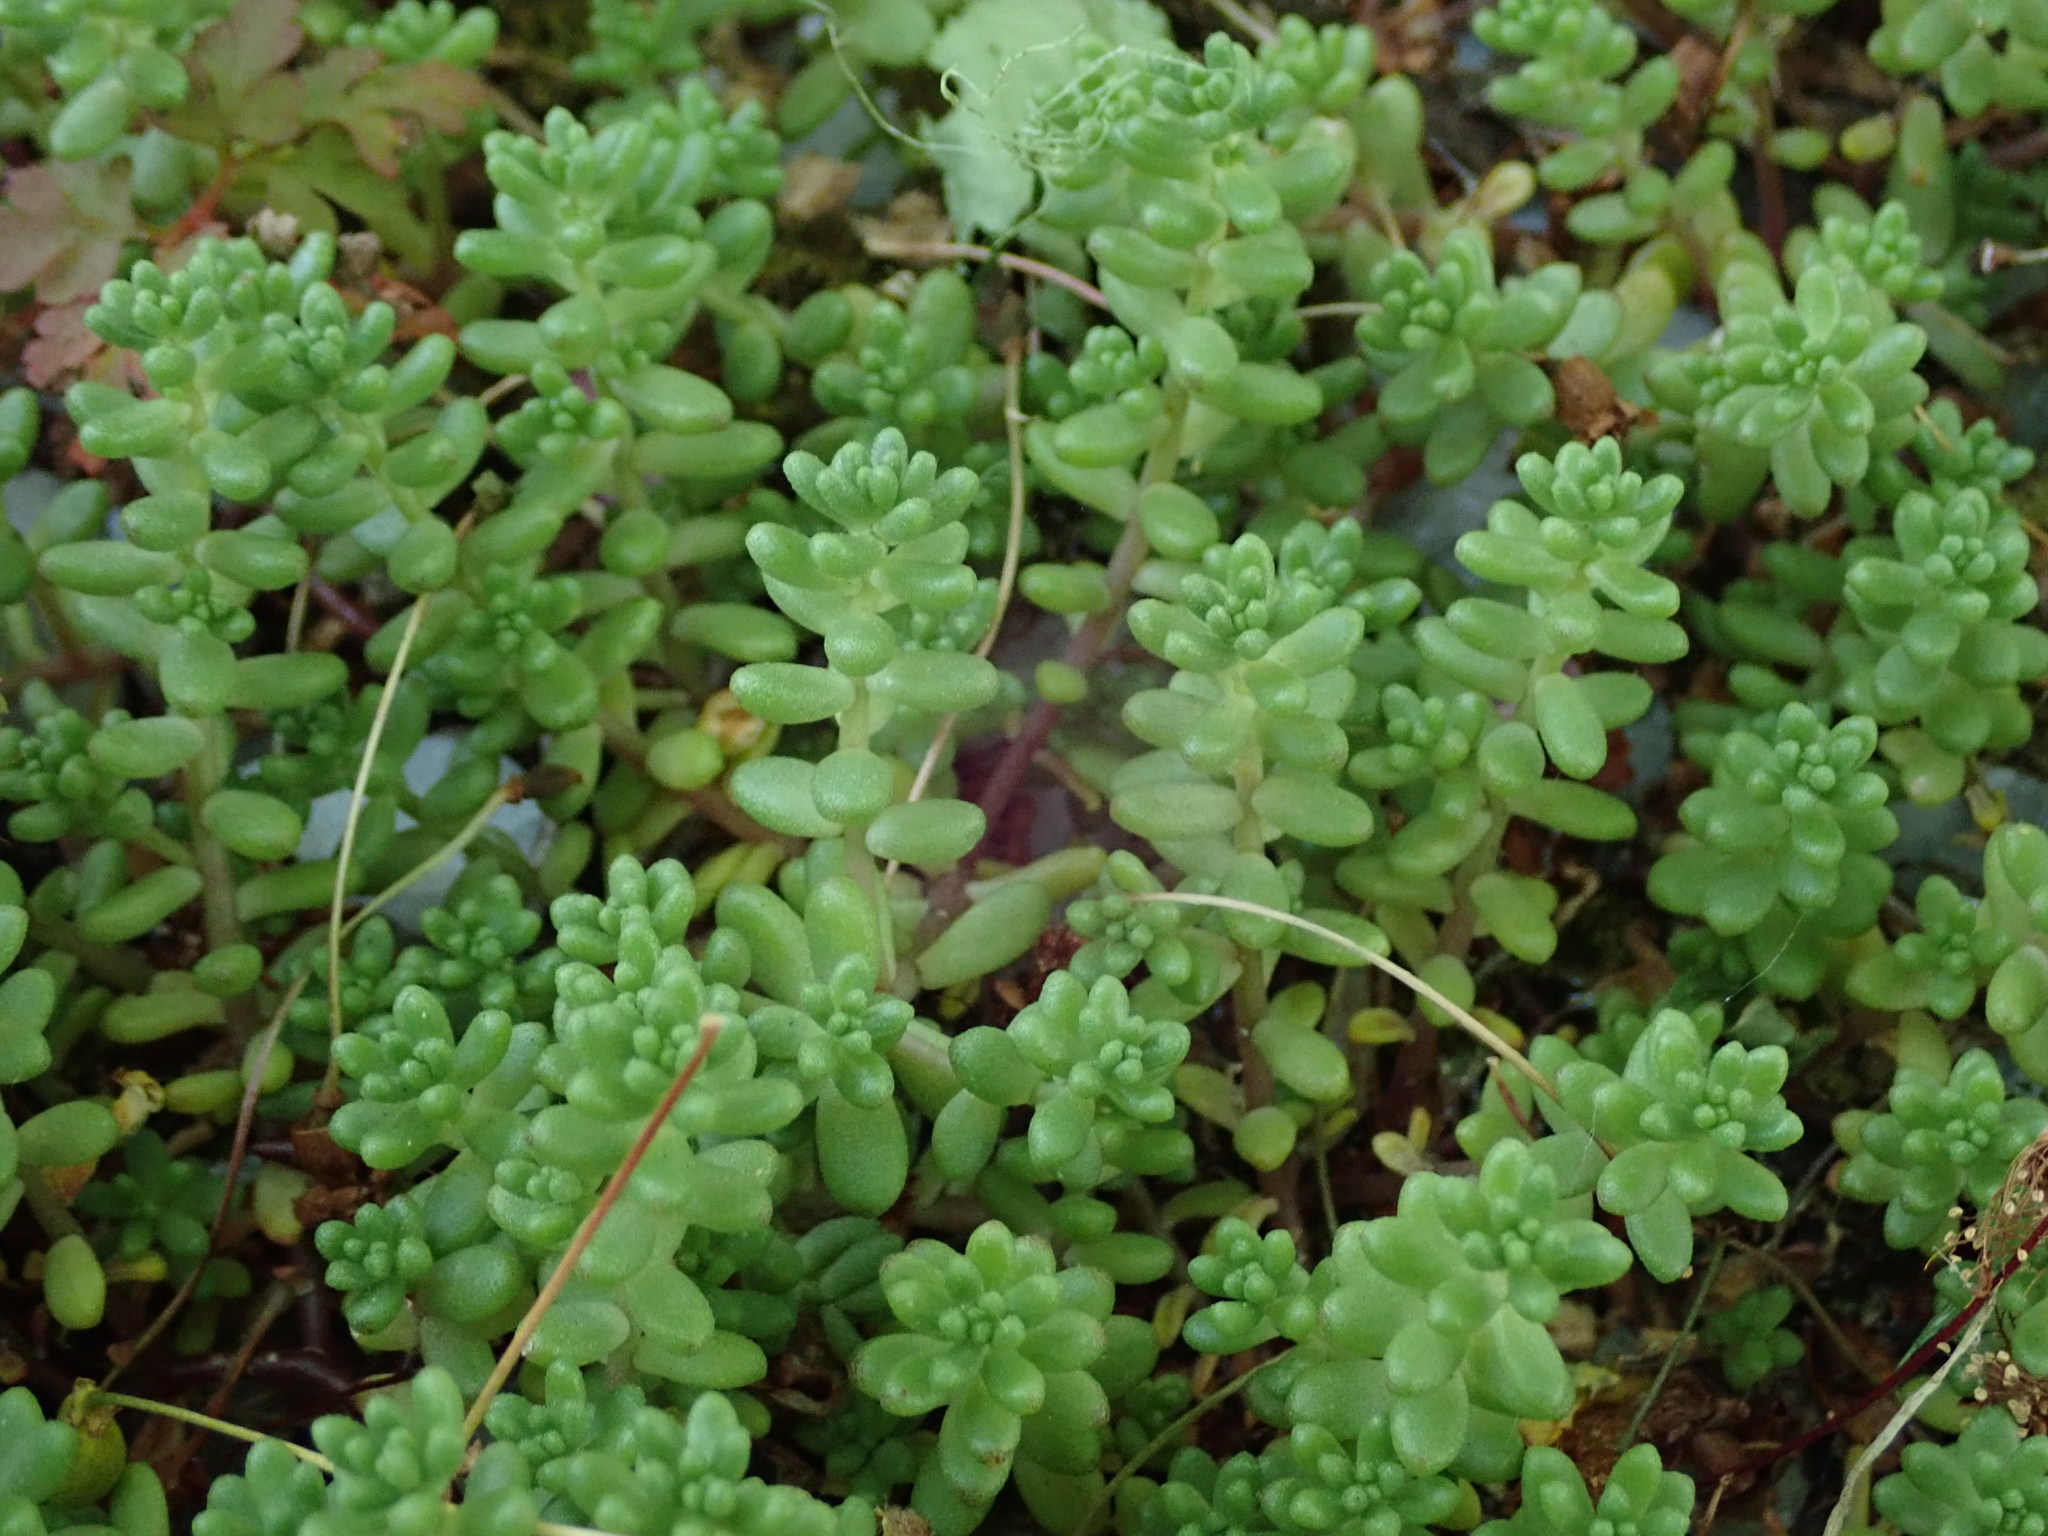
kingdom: Plantae
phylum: Tracheophyta
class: Magnoliopsida
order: Saxifragales
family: Crassulaceae
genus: Sedum
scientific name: Sedum album
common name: White stonecrop
